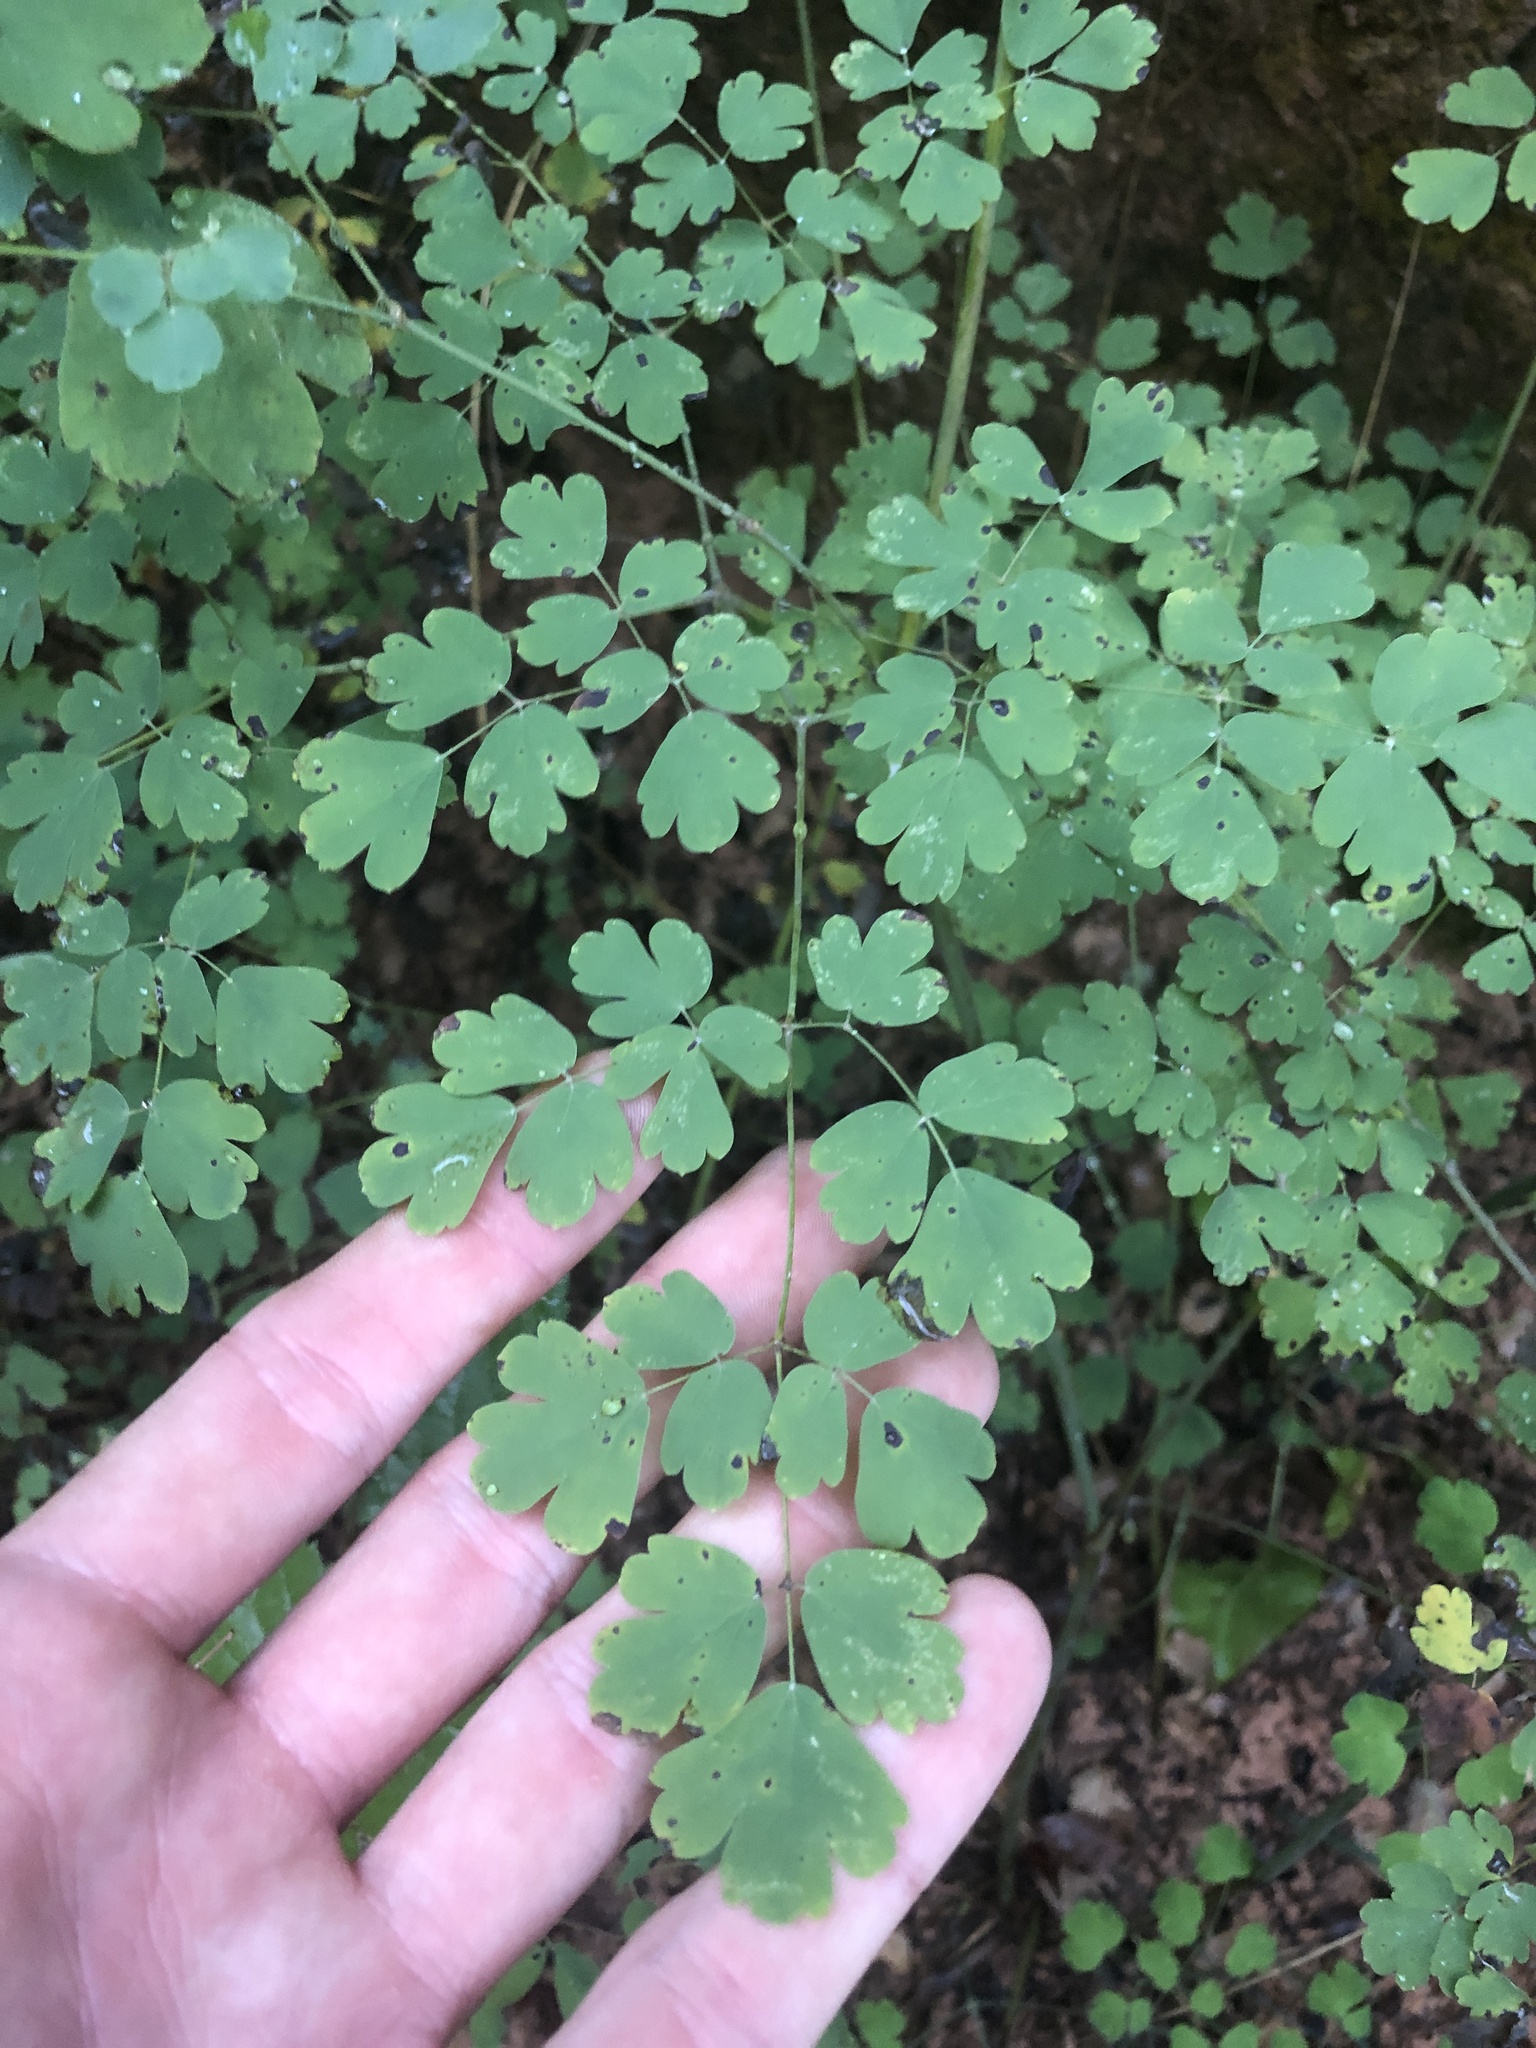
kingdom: Plantae
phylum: Tracheophyta
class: Magnoliopsida
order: Ranunculales
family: Ranunculaceae
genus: Thalictrum
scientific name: Thalictrum fendleri
